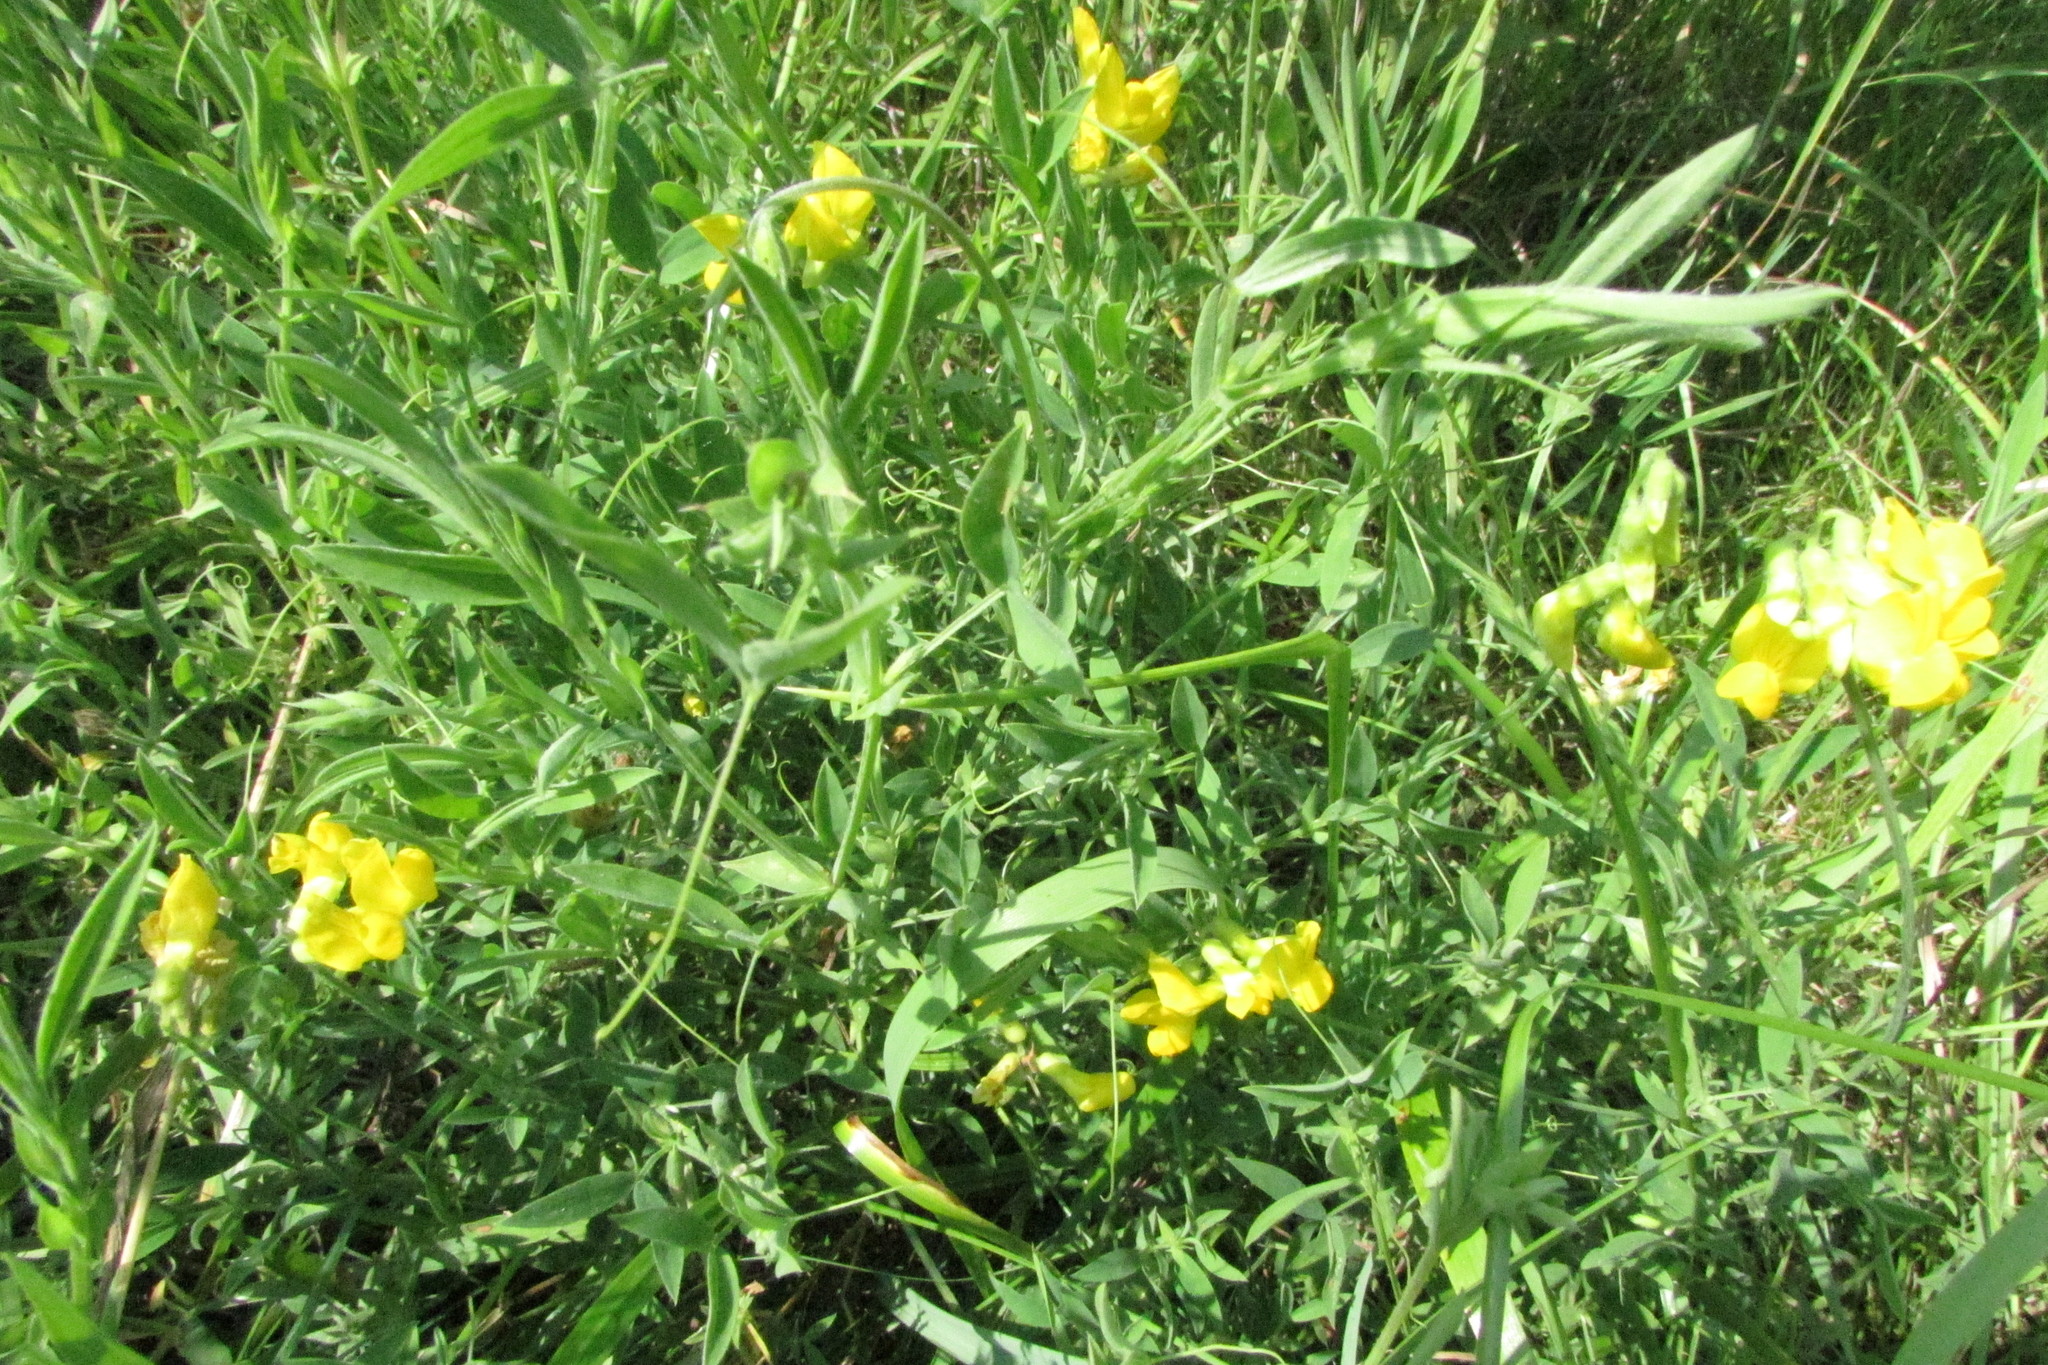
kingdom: Plantae
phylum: Tracheophyta
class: Magnoliopsida
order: Fabales
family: Fabaceae
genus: Lathyrus
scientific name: Lathyrus pratensis
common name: Meadow vetchling
